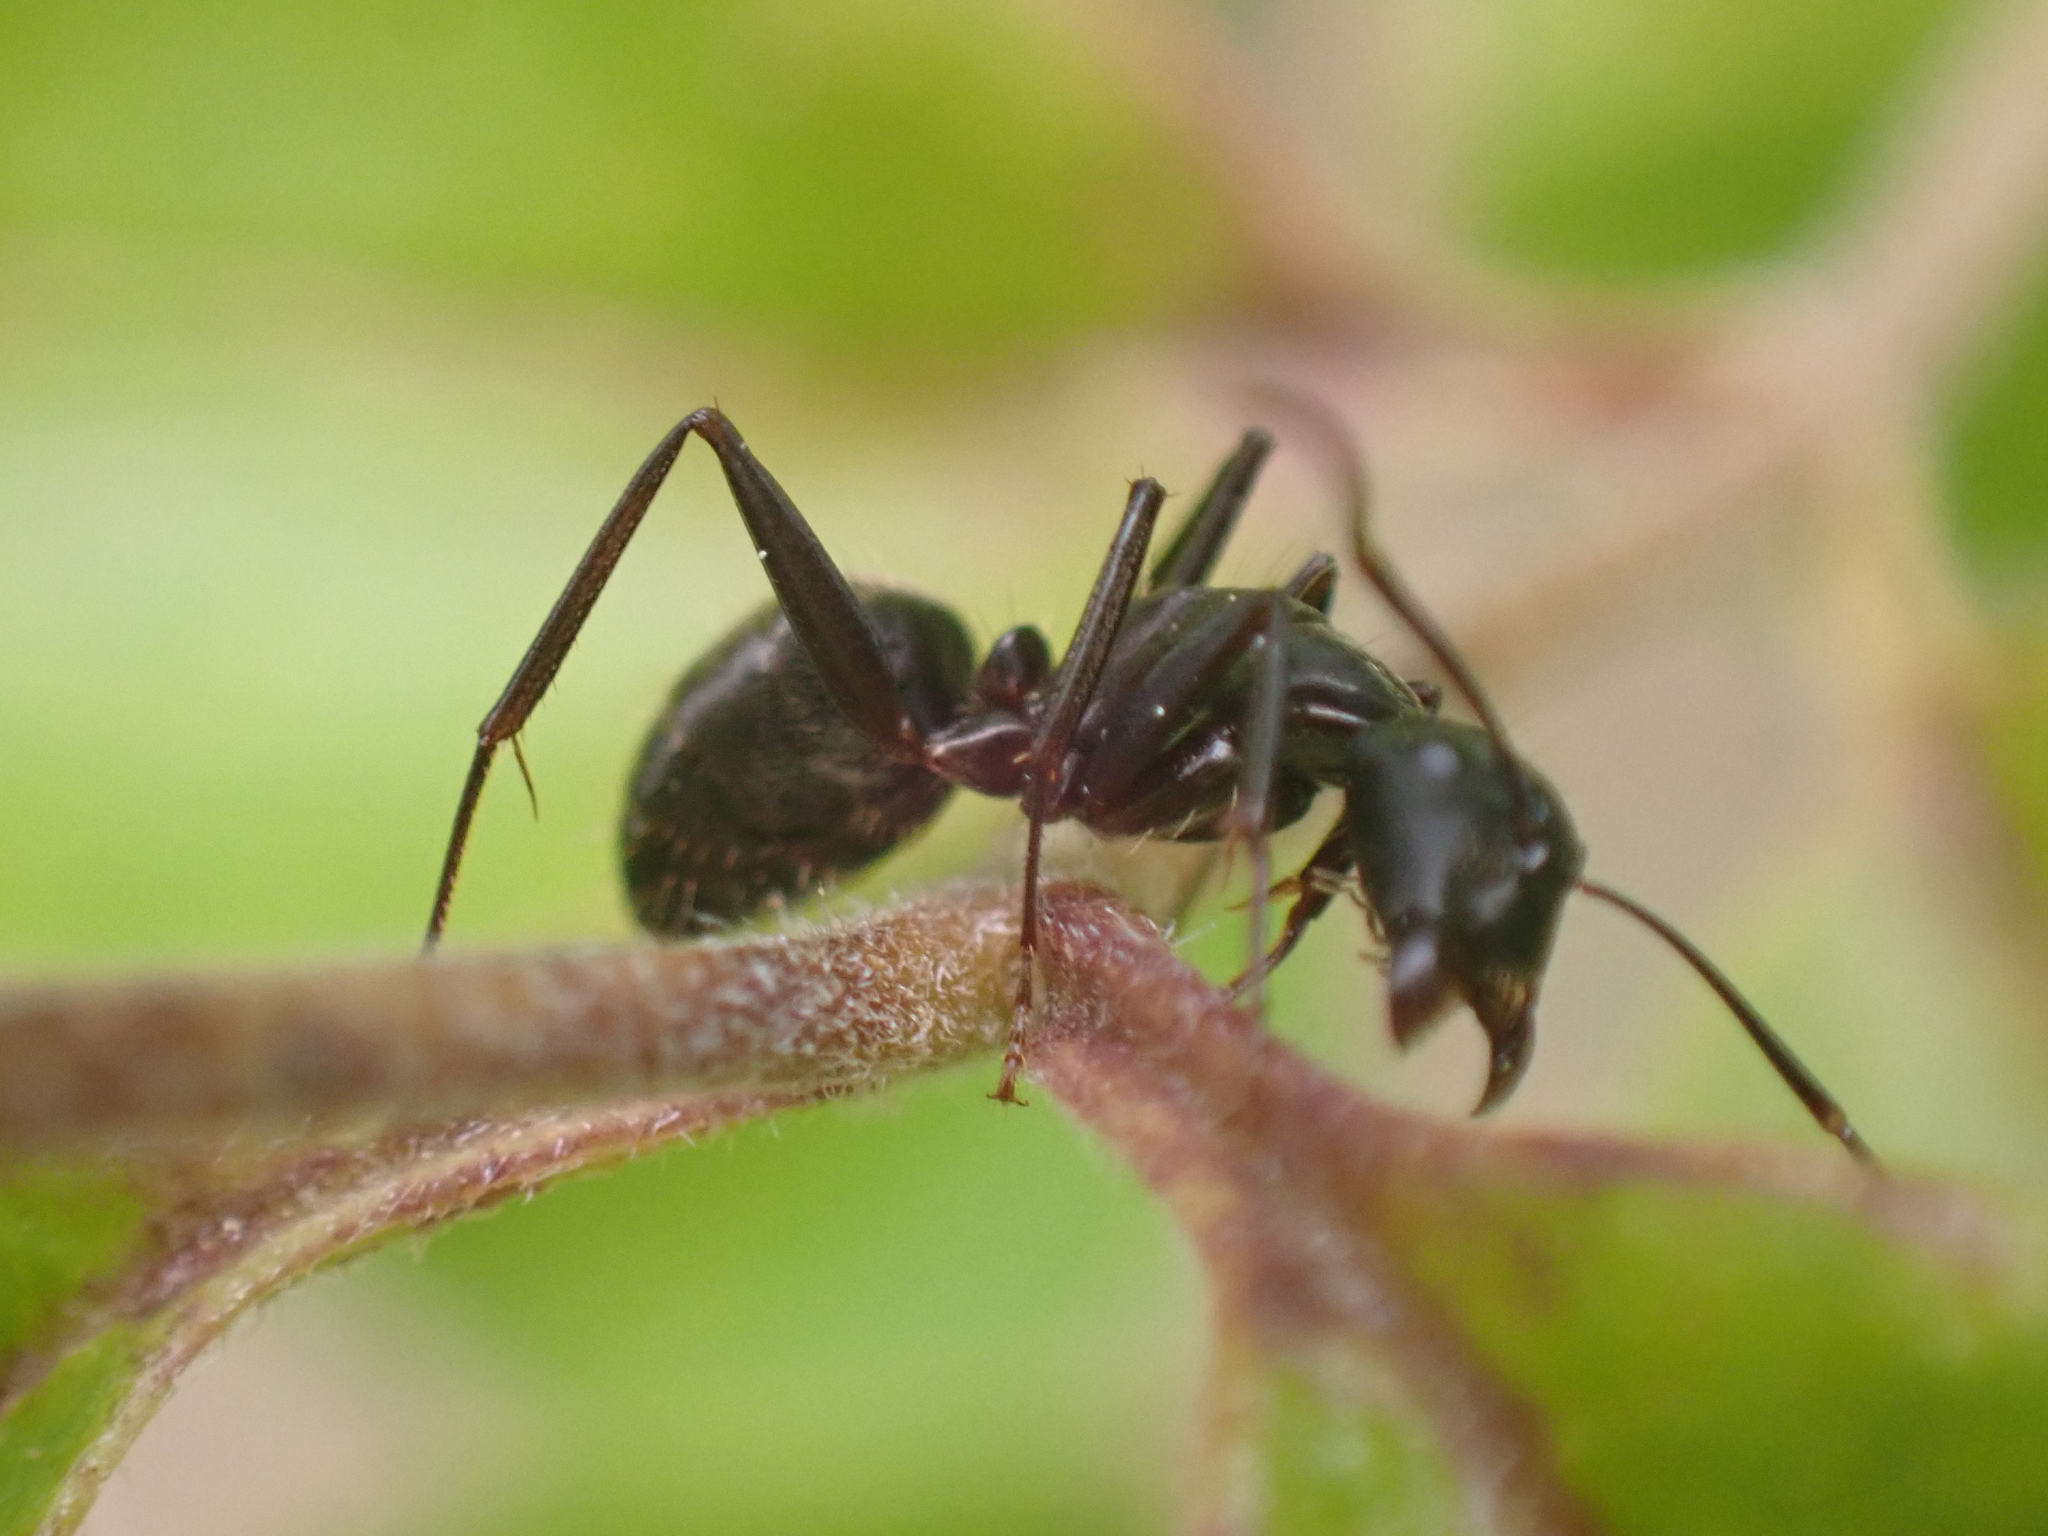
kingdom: Animalia
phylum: Arthropoda
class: Insecta
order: Hymenoptera
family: Formicidae
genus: Camponotus
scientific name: Camponotus pennsylvanicus
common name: Black carpenter ant
